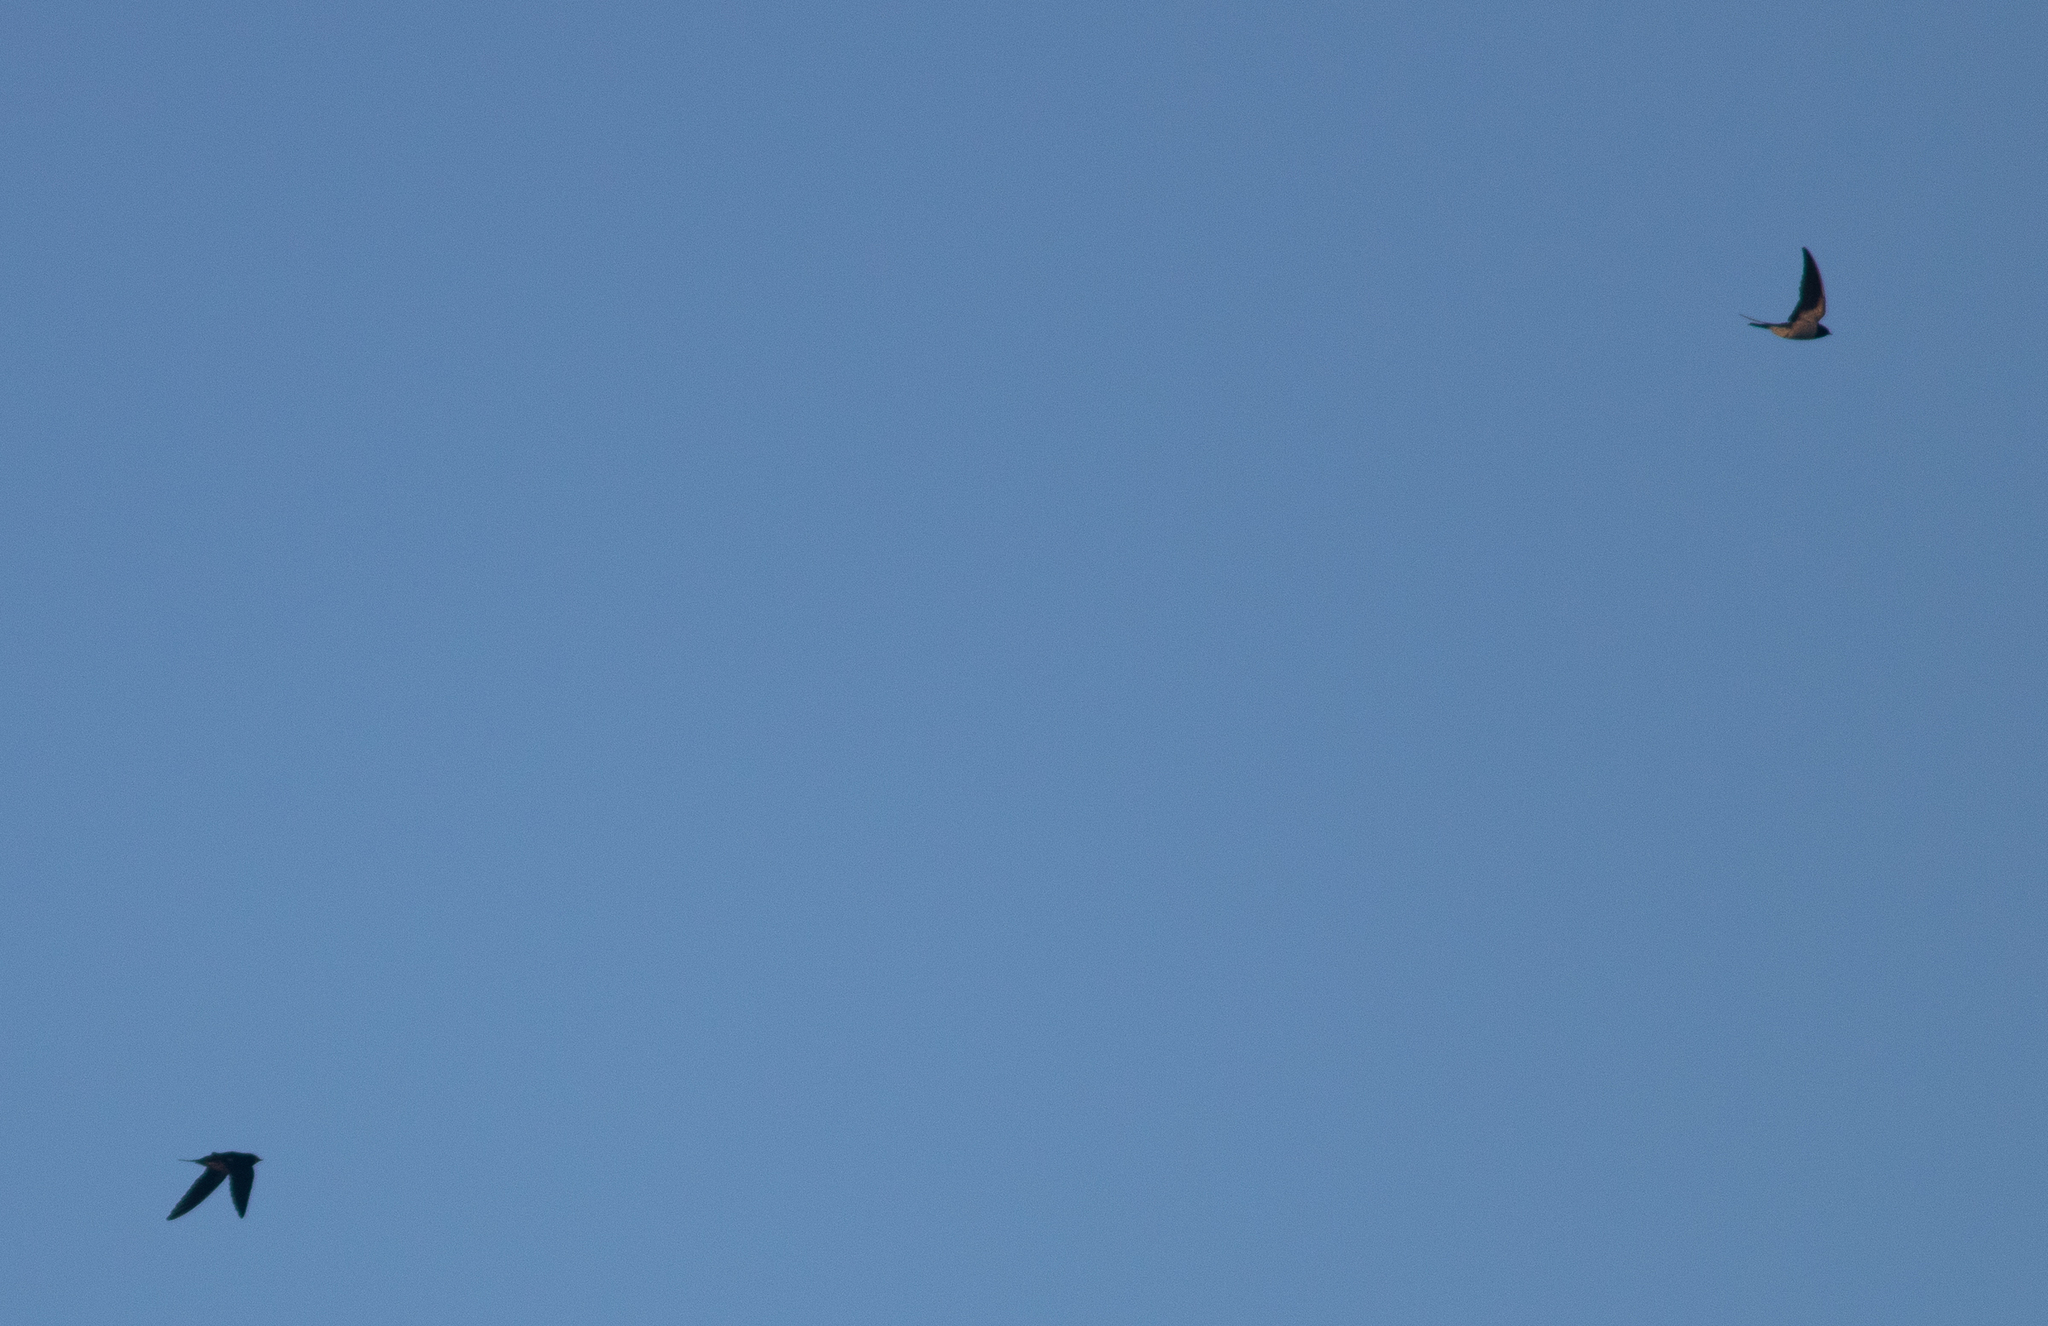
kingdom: Animalia
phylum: Chordata
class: Aves
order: Passeriformes
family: Hirundinidae
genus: Hirundo
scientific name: Hirundo rustica
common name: Barn swallow
